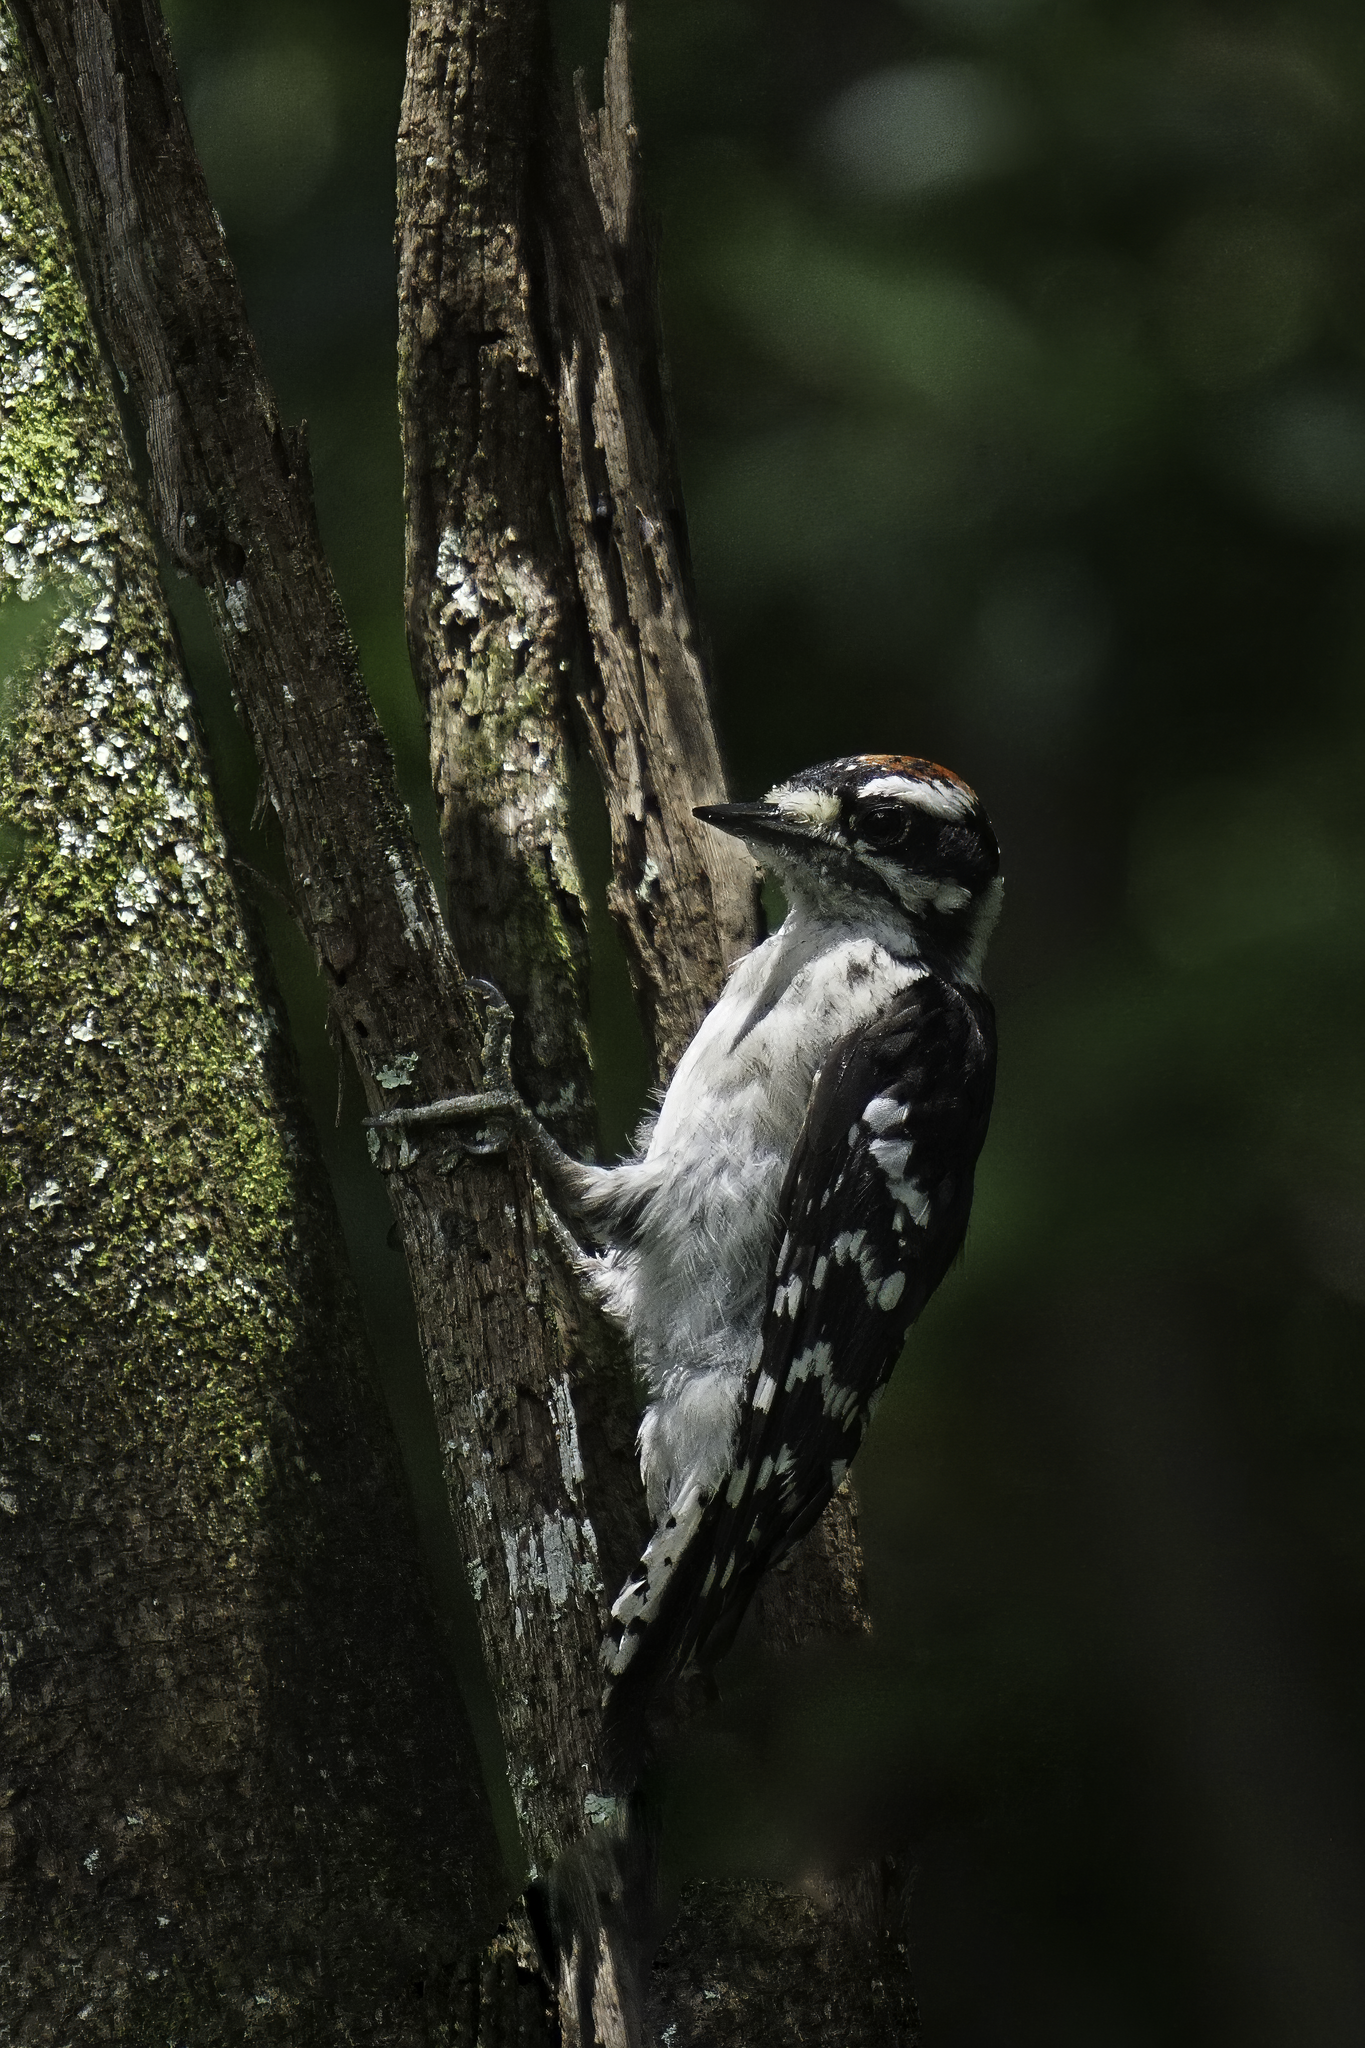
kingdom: Animalia
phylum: Chordata
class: Aves
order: Piciformes
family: Picidae
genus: Dryobates
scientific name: Dryobates pubescens
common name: Downy woodpecker
